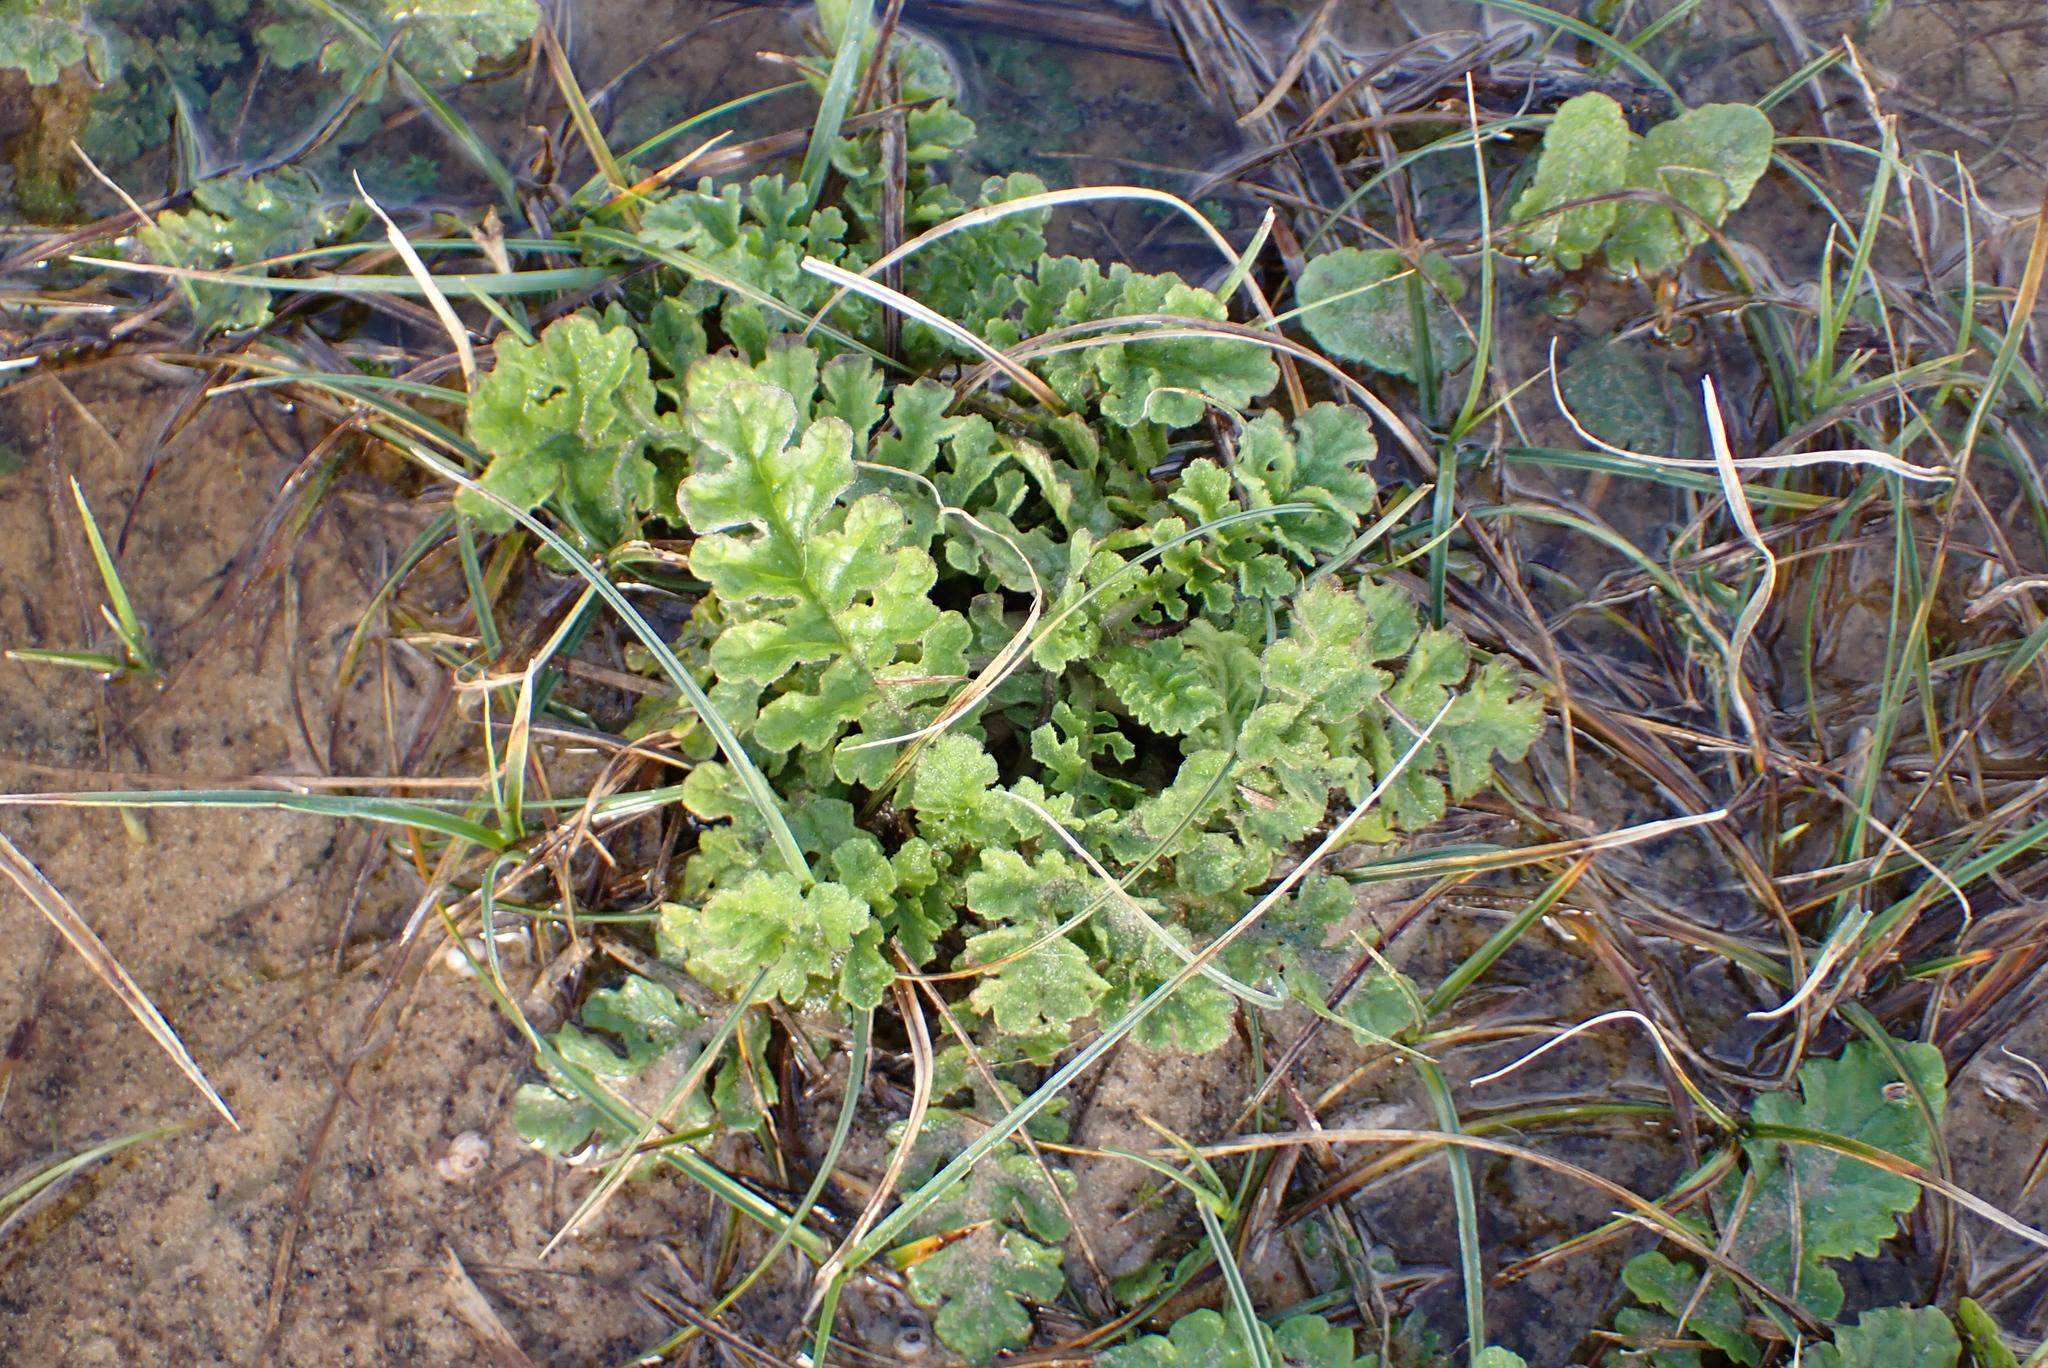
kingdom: Plantae
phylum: Tracheophyta
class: Magnoliopsida
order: Asterales
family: Asteraceae
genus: Jacobaea
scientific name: Jacobaea vulgaris
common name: Stinking willie
